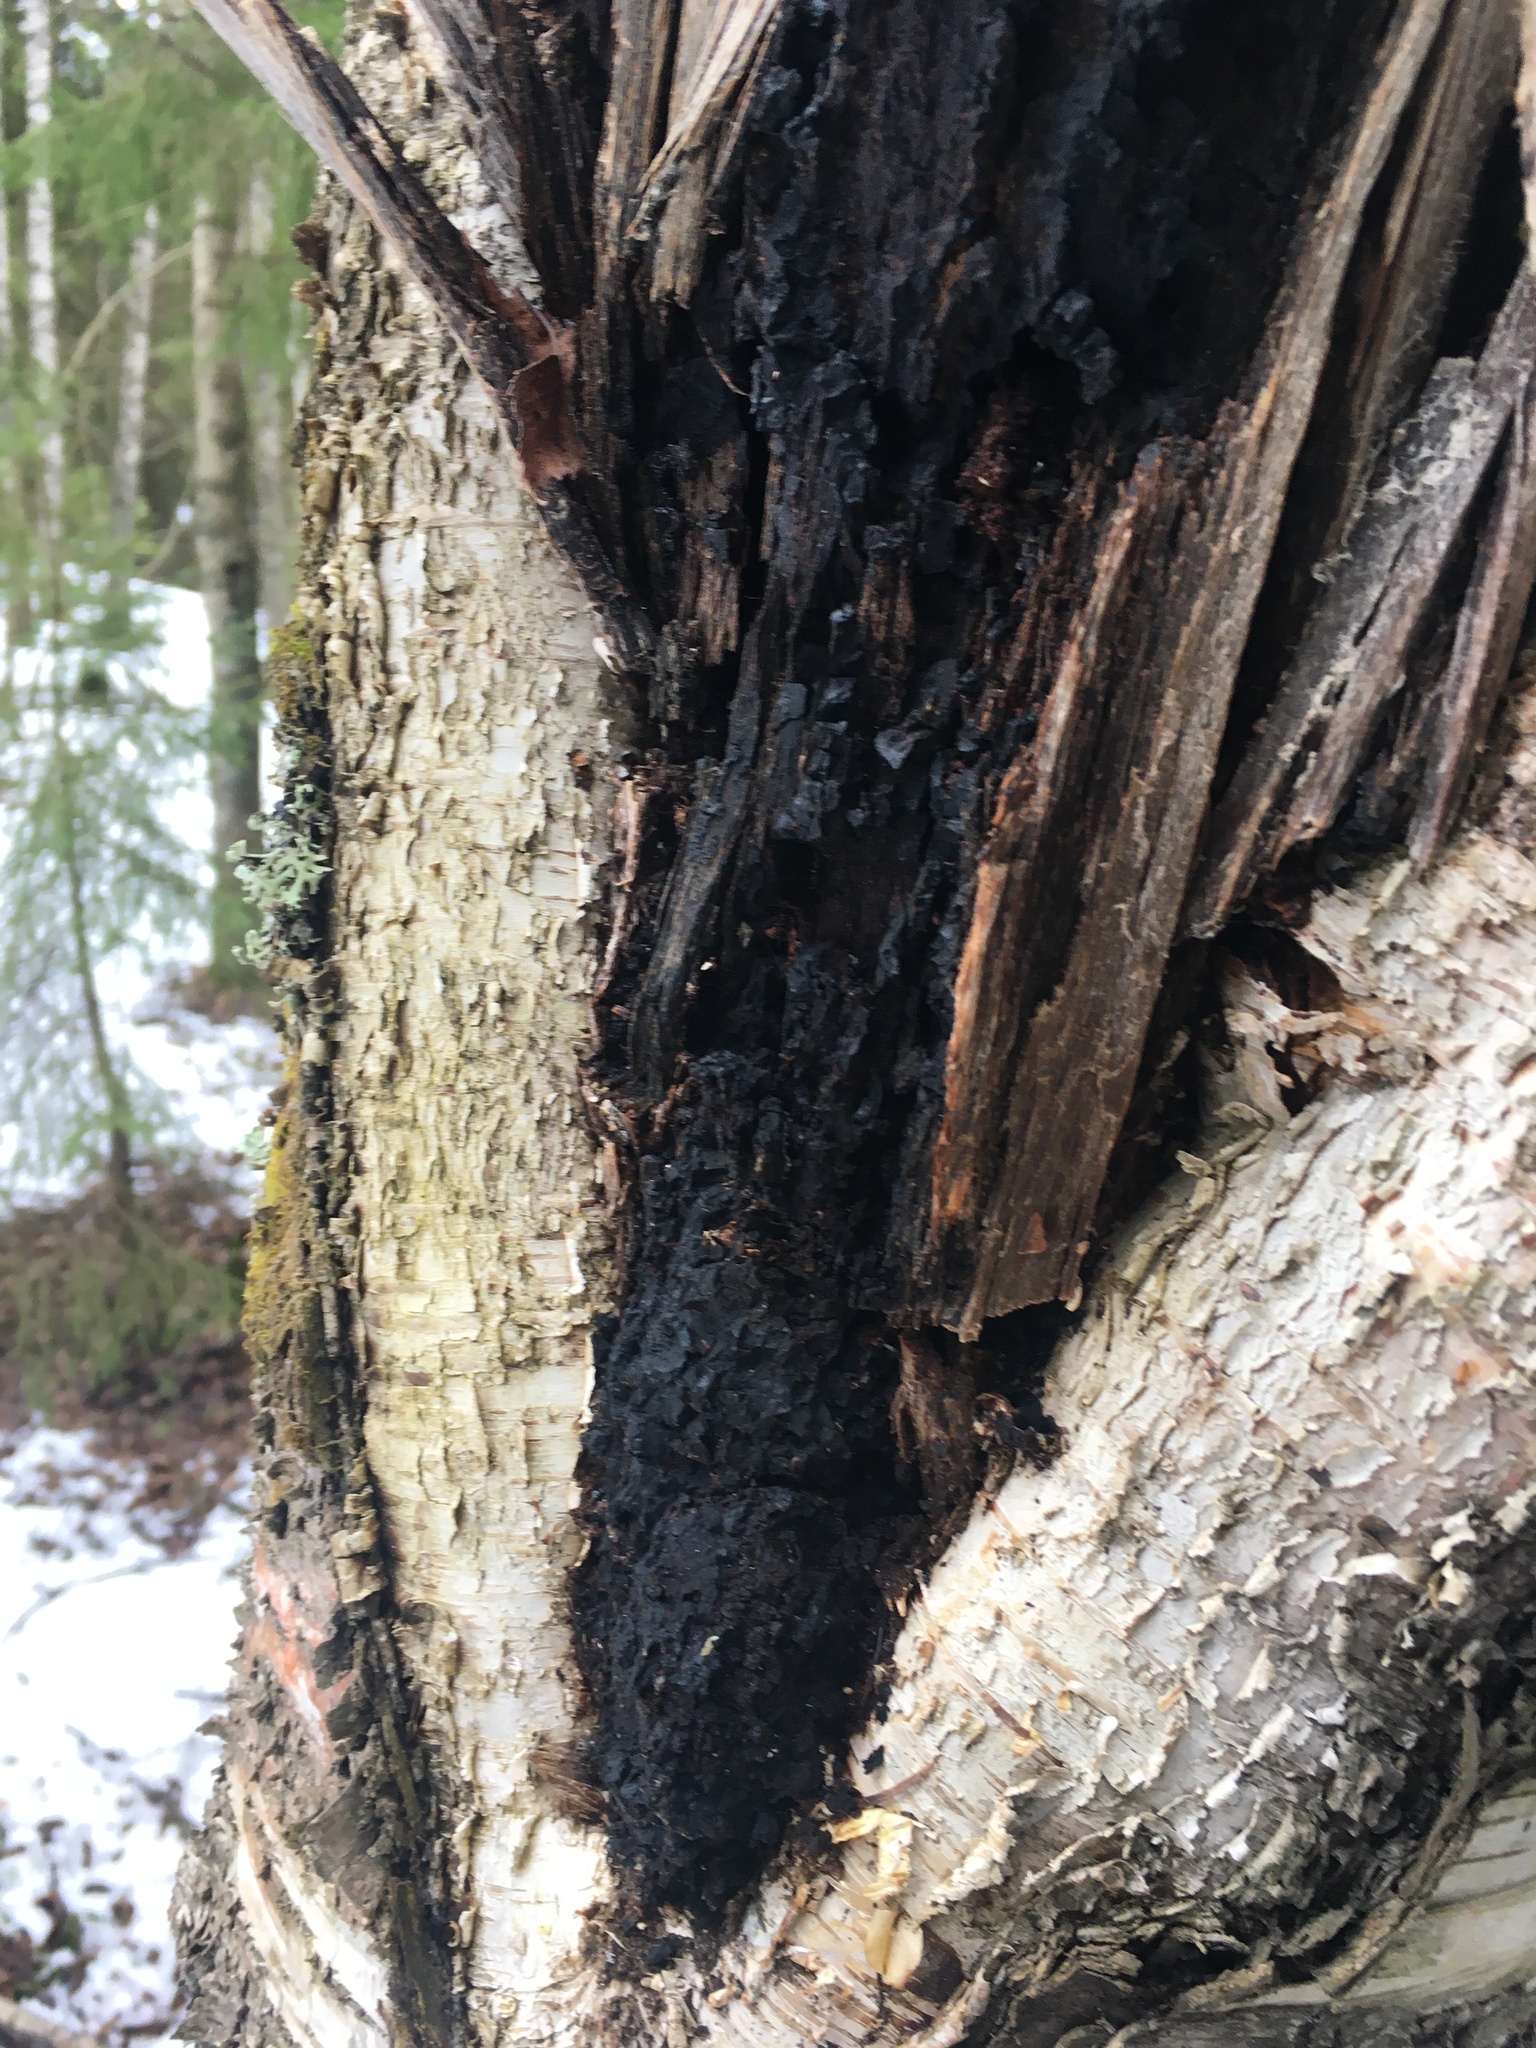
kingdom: Fungi
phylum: Basidiomycota
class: Agaricomycetes
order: Hymenochaetales
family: Hymenochaetaceae
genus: Inonotus
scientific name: Inonotus obliquus
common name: Chaga
